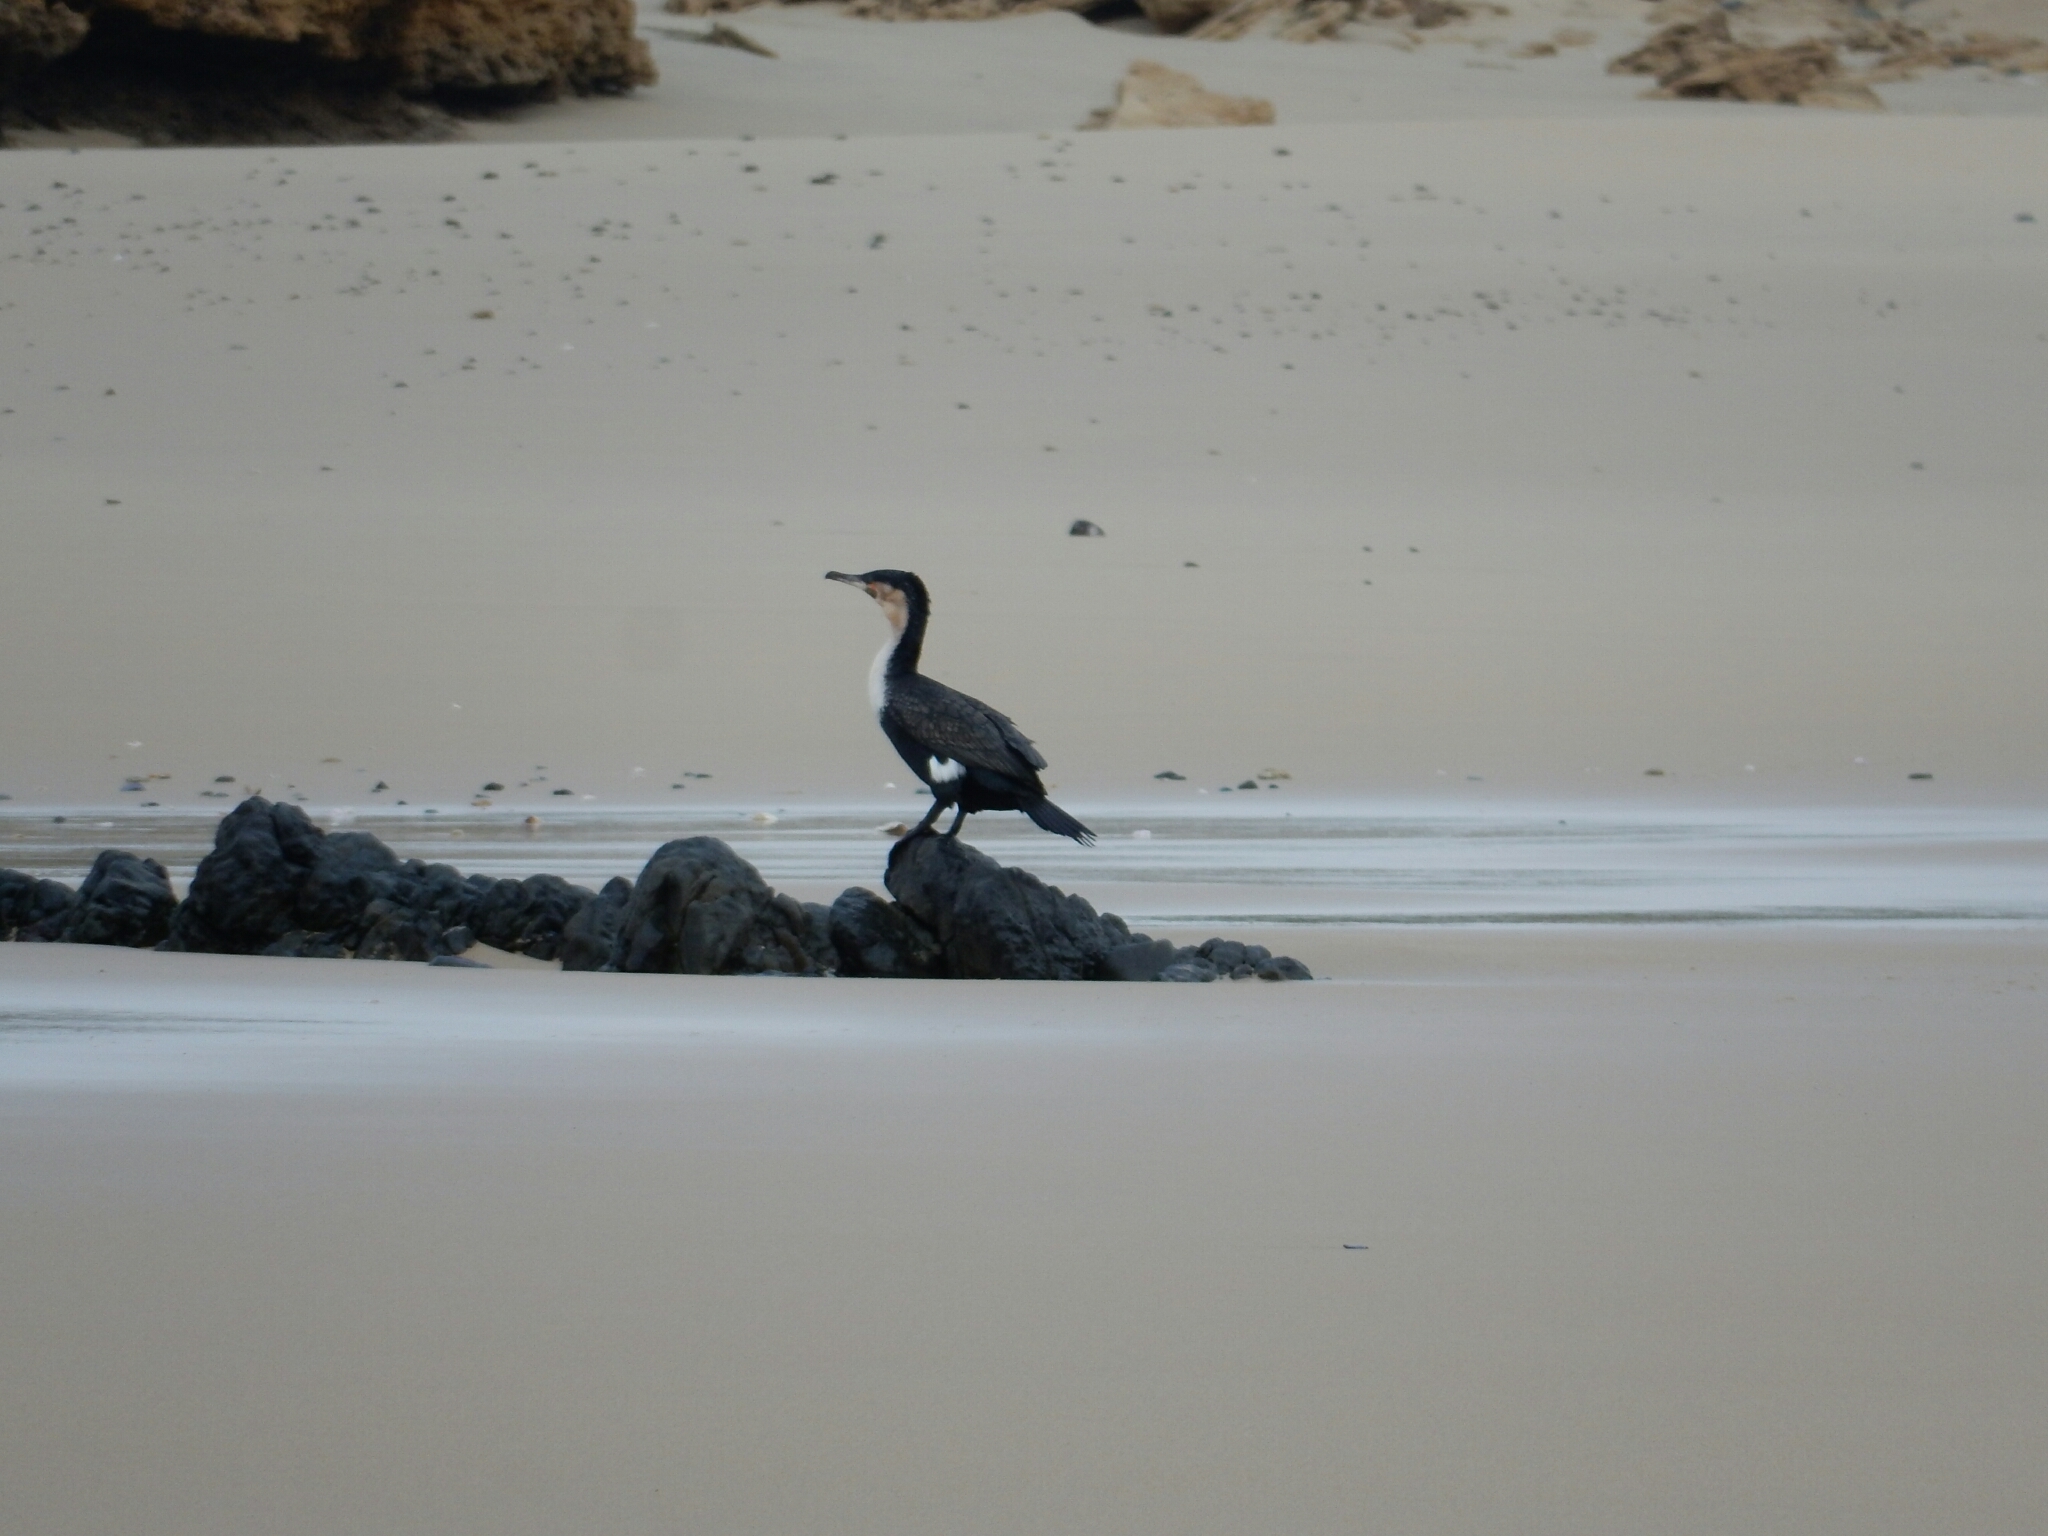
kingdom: Animalia
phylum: Chordata
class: Aves
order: Suliformes
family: Phalacrocoracidae
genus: Phalacrocorax
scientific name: Phalacrocorax carbo
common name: Great cormorant
